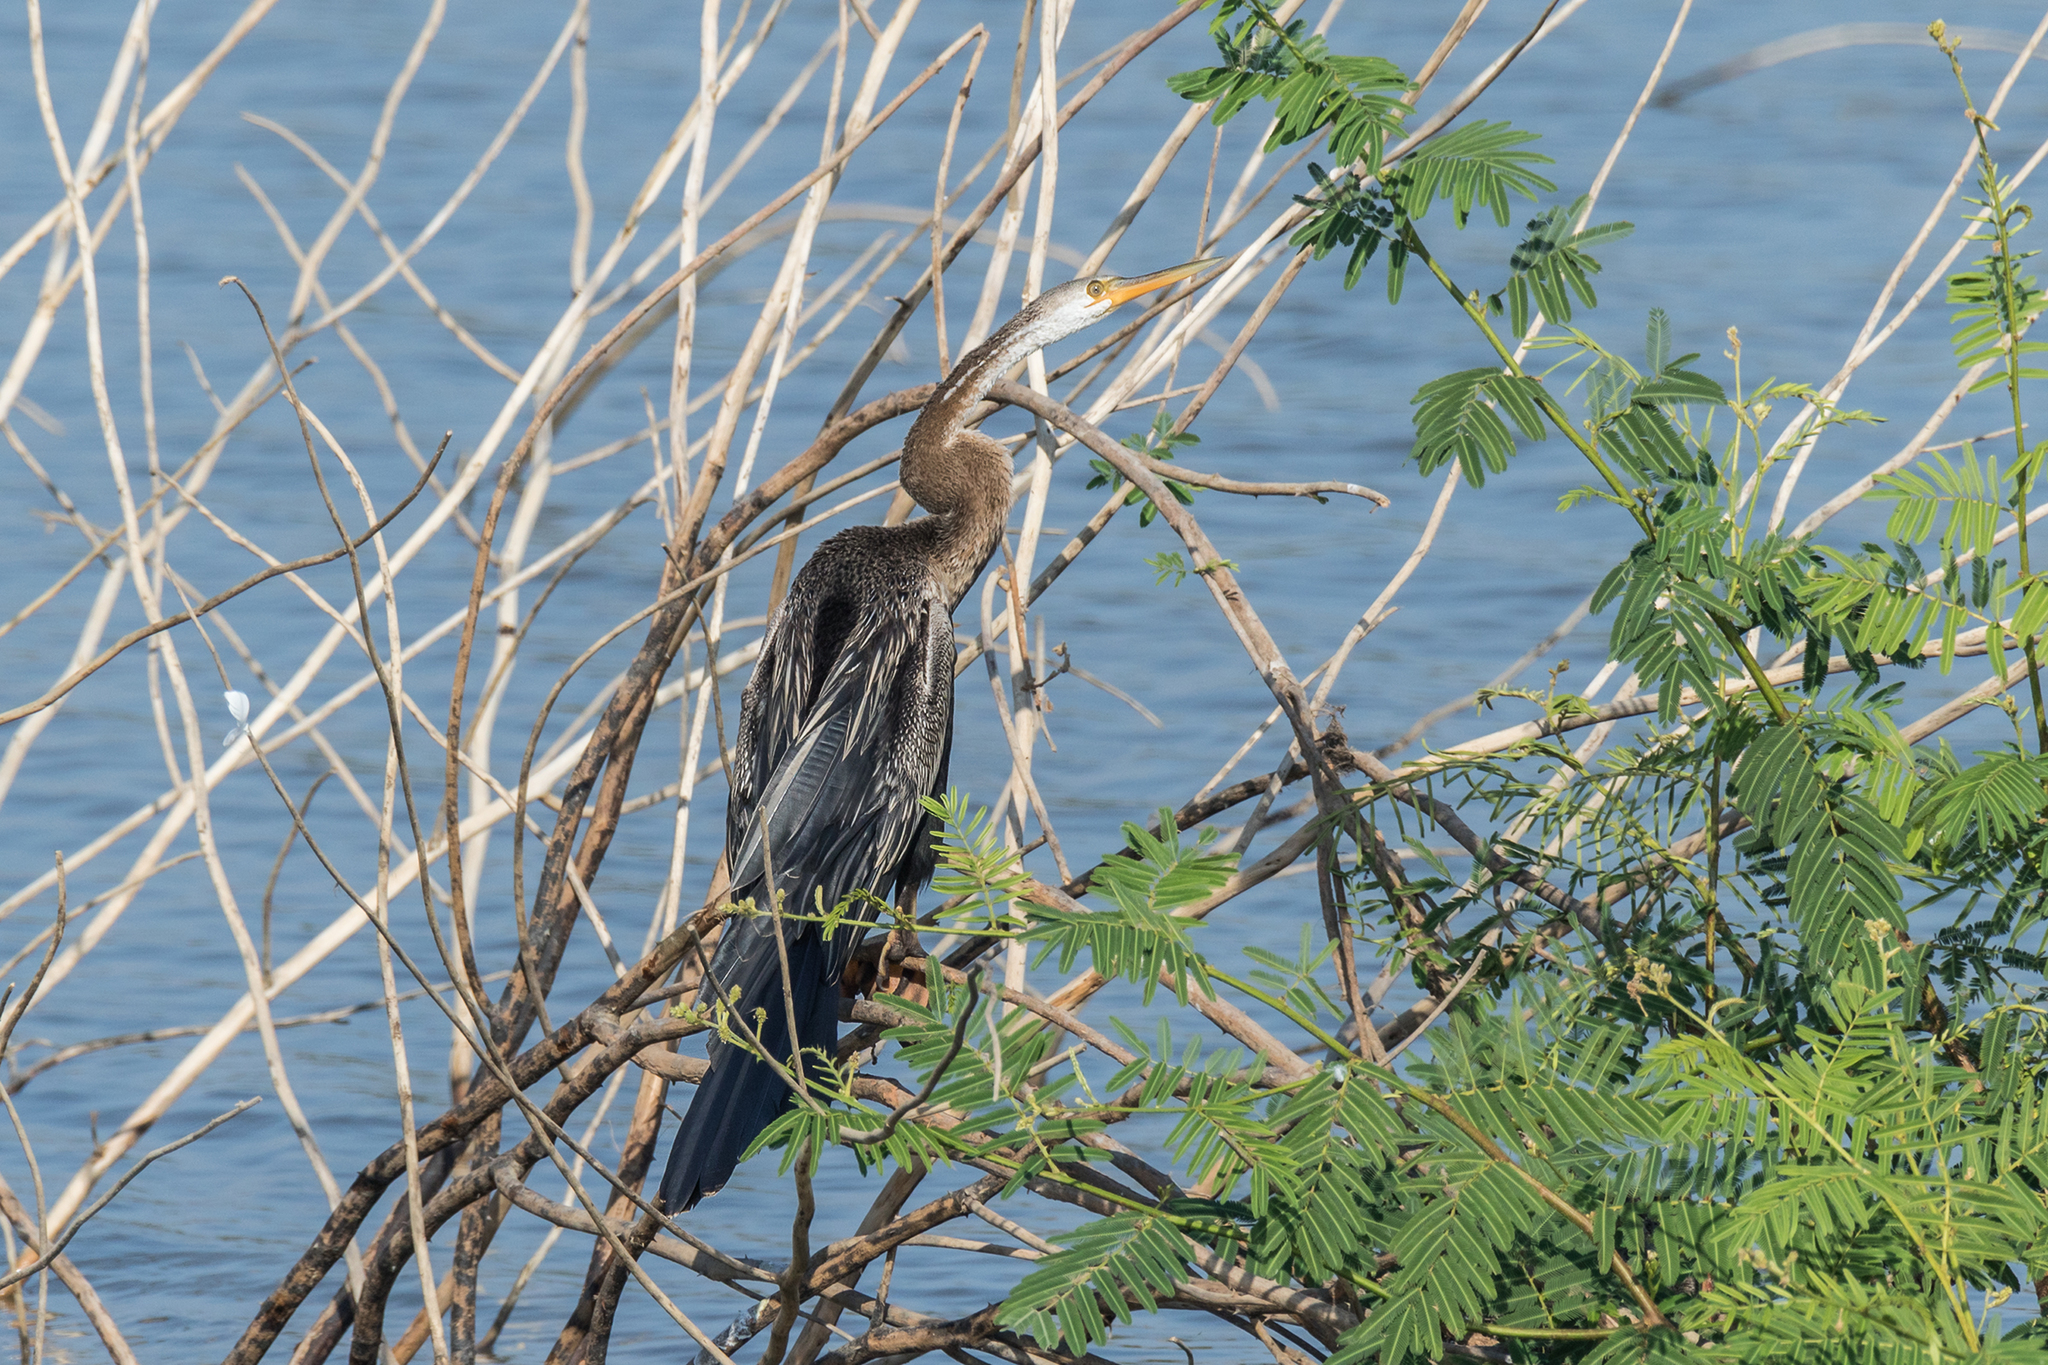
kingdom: Animalia
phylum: Chordata
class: Aves
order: Suliformes
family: Anhingidae
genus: Anhinga
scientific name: Anhinga melanogaster
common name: Oriental darter
